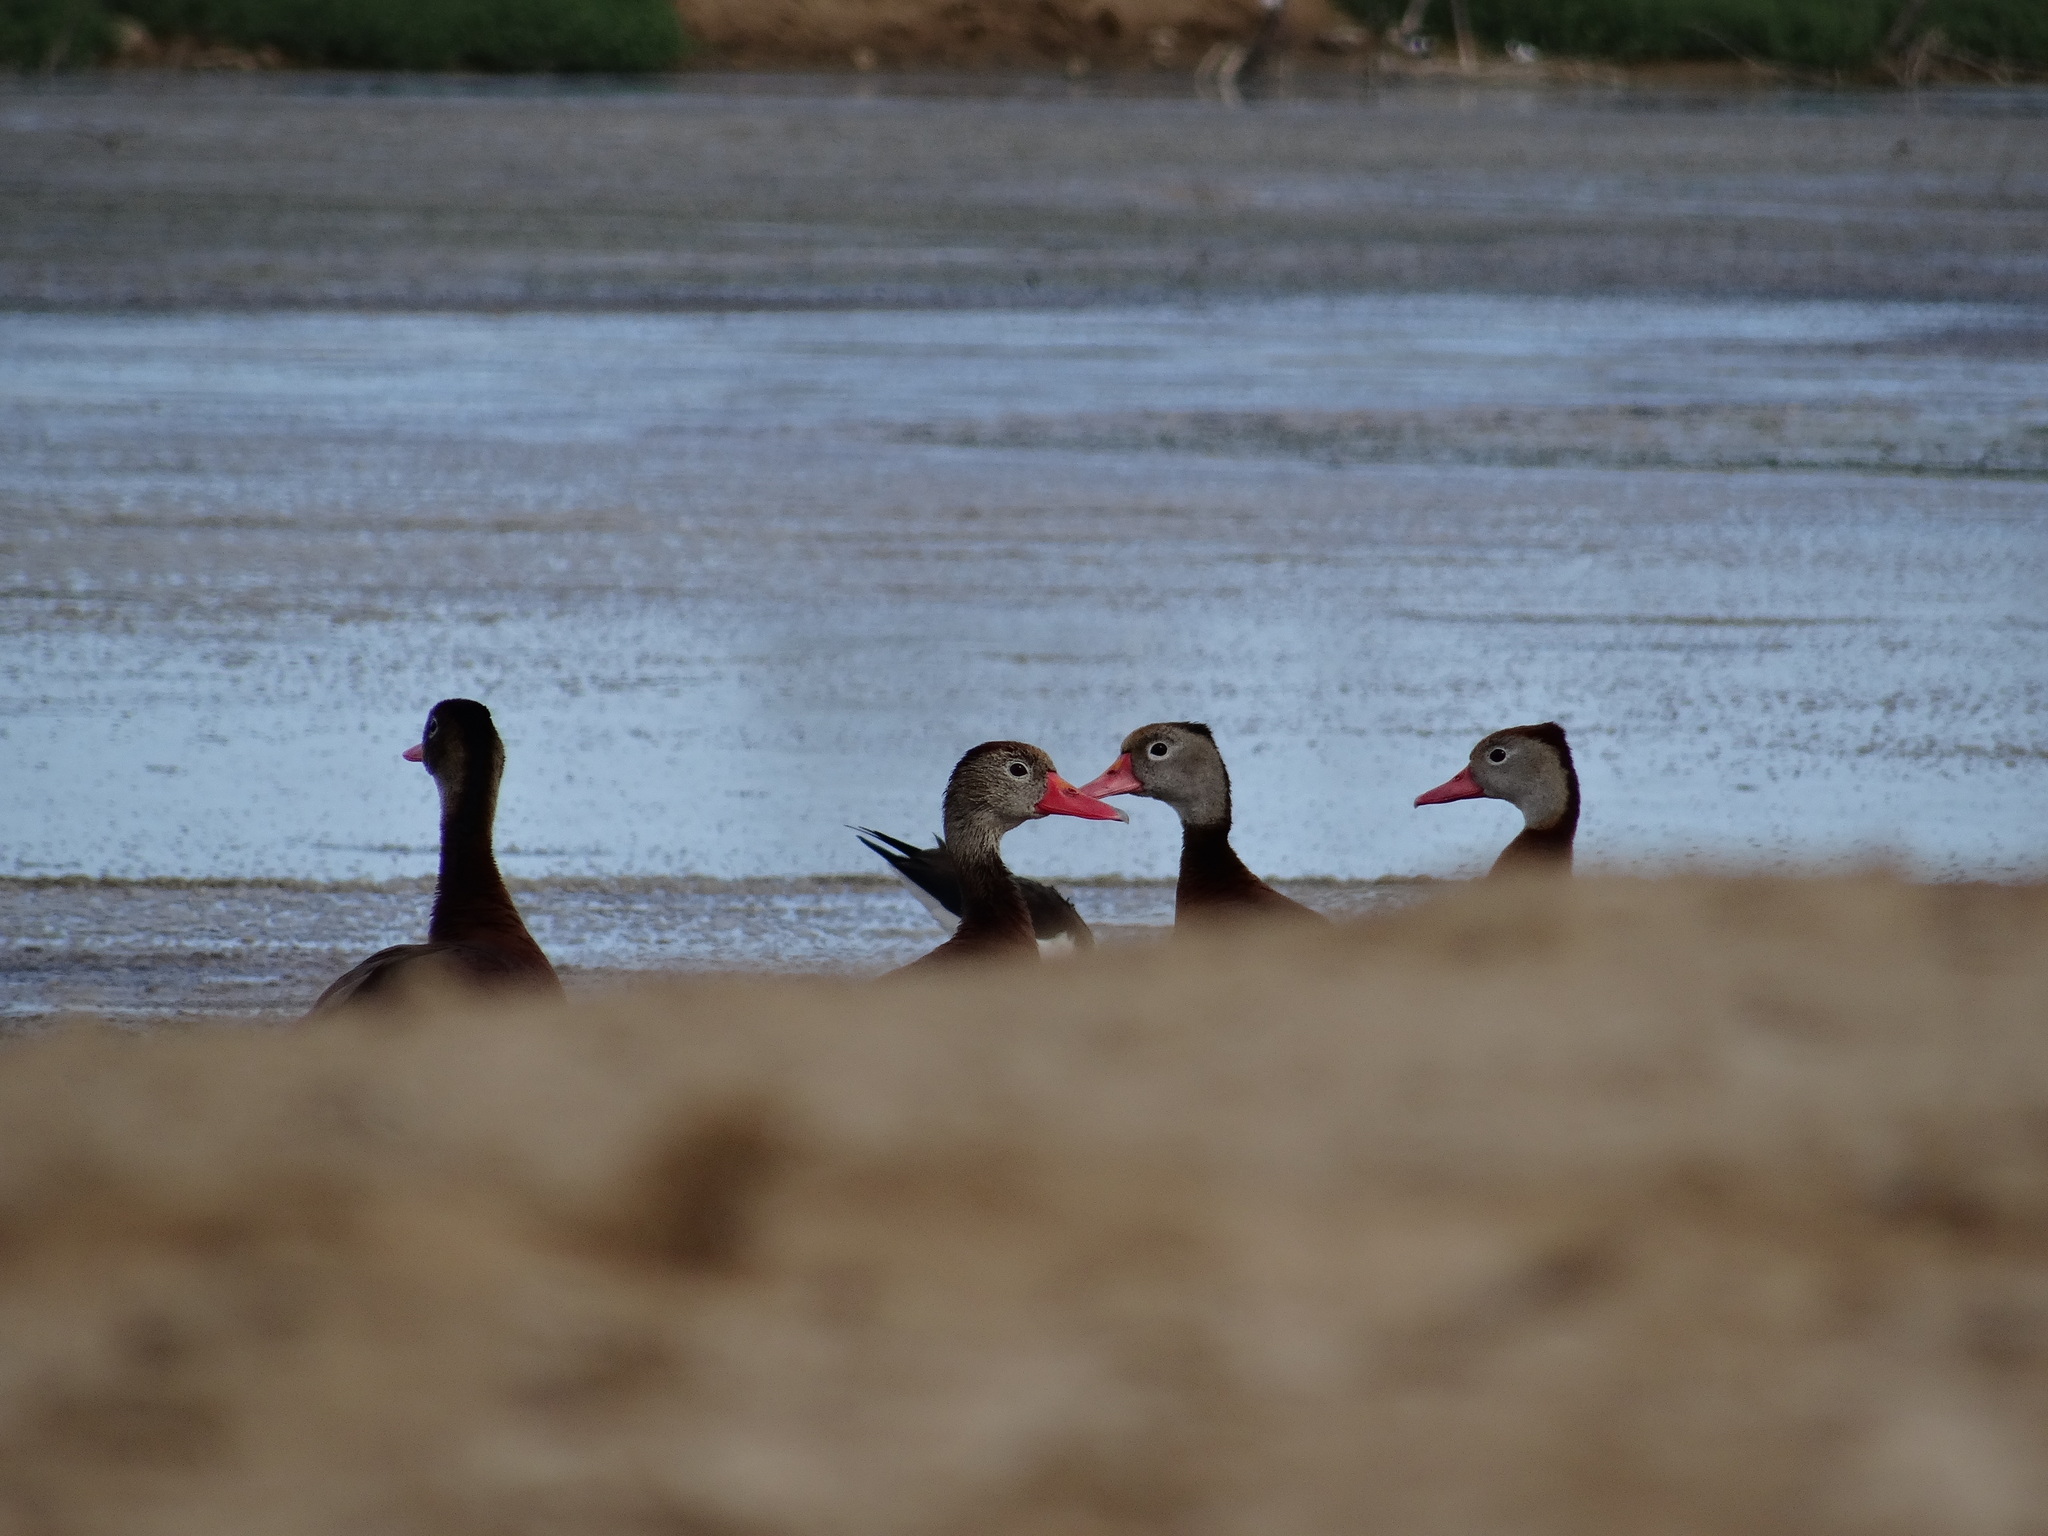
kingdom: Animalia
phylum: Chordata
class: Aves
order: Anseriformes
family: Anatidae
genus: Dendrocygna
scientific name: Dendrocygna autumnalis
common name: Black-bellied whistling duck
